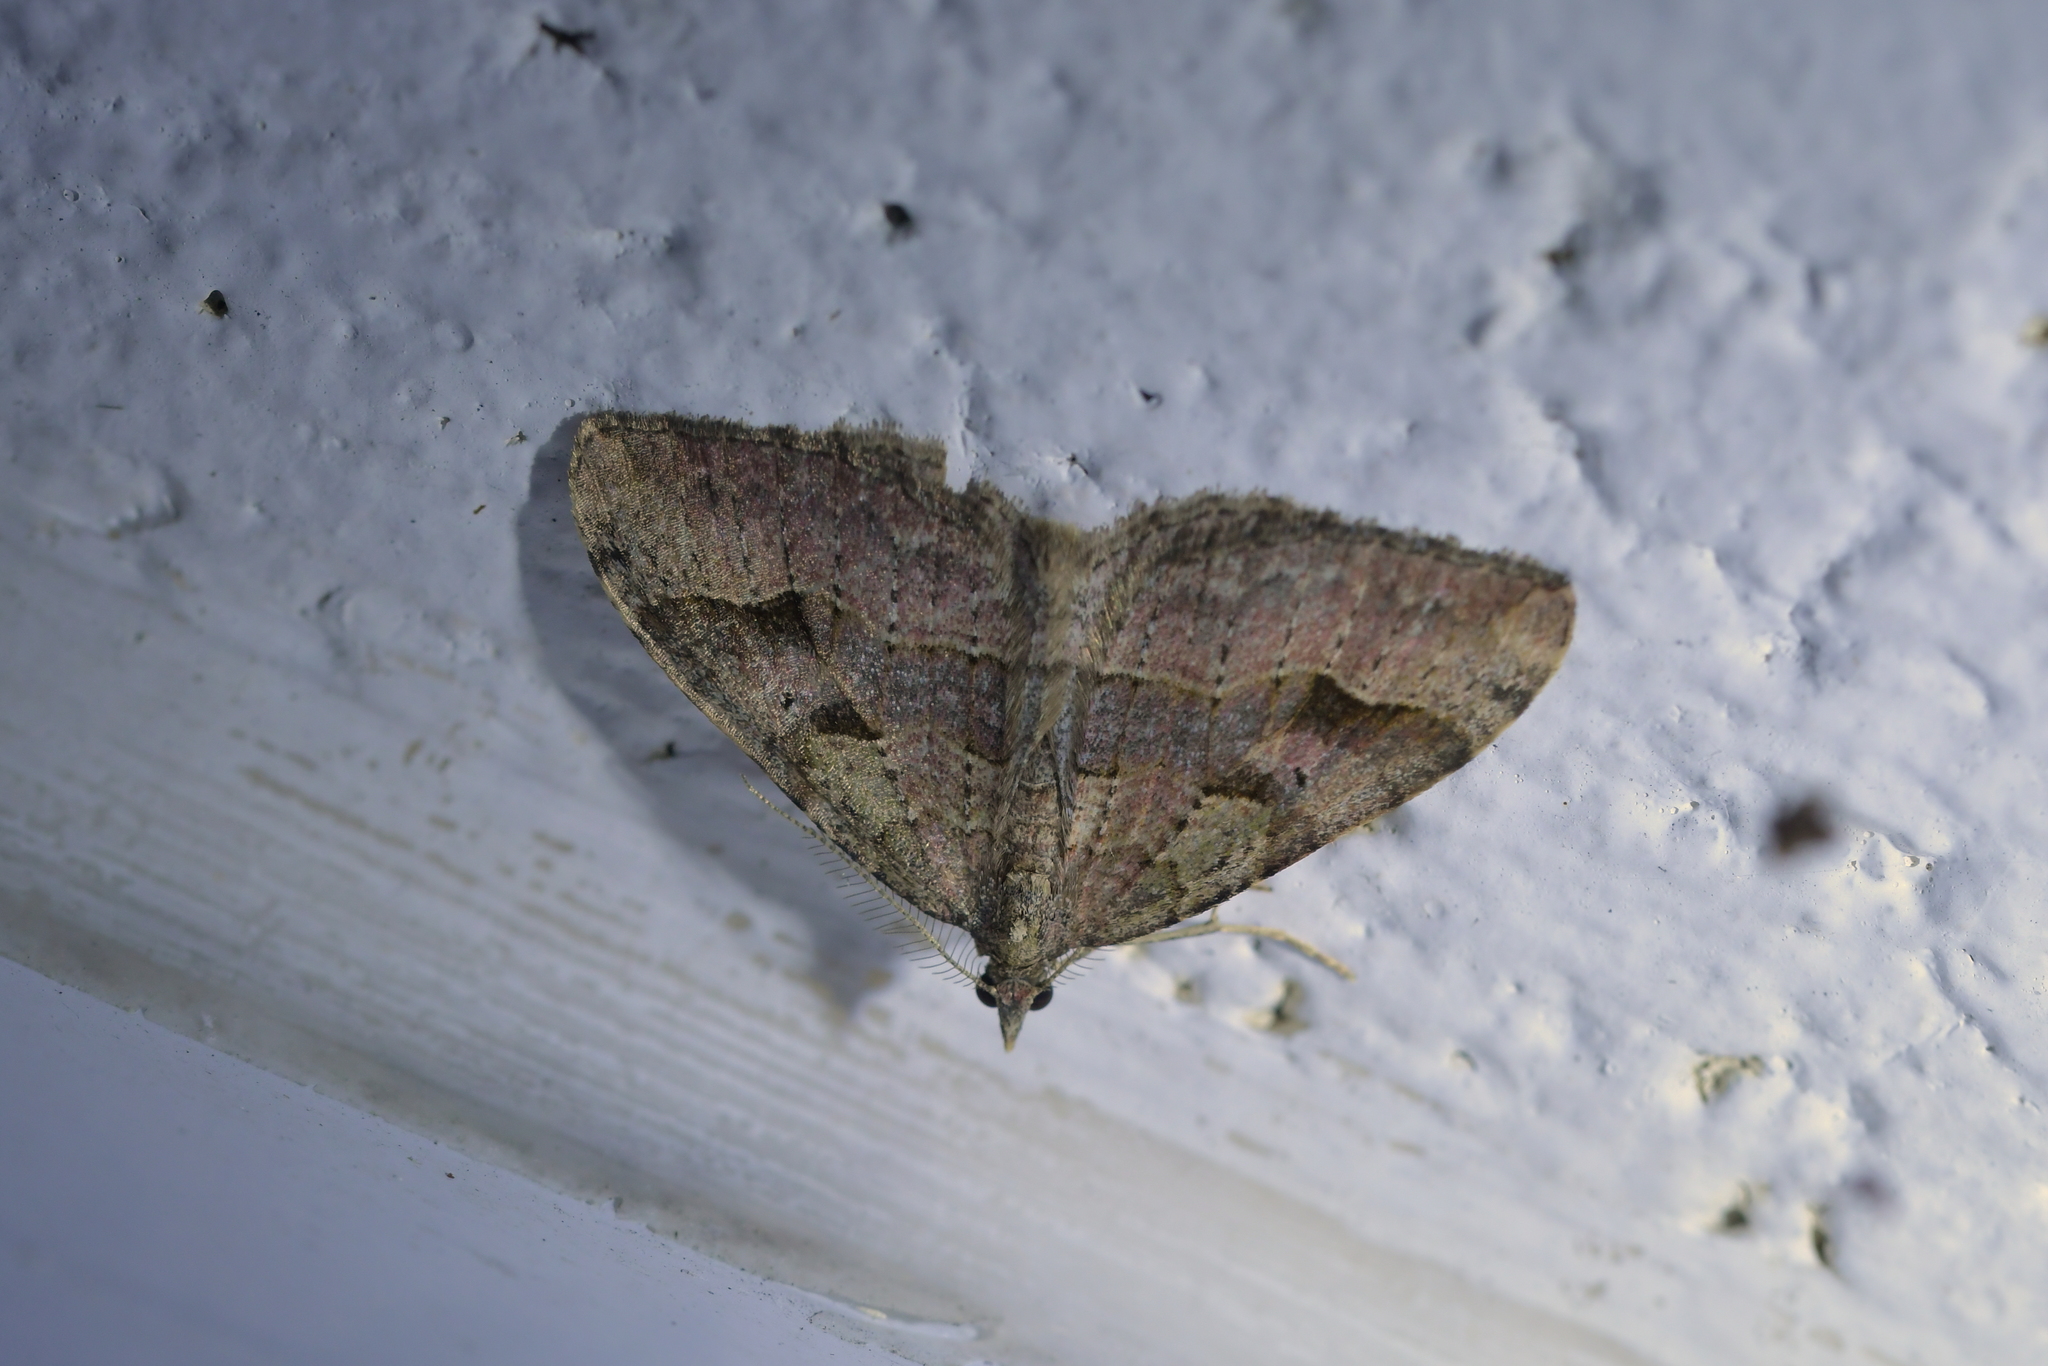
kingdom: Animalia
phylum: Arthropoda
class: Insecta
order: Lepidoptera
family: Geometridae
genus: Epyaxa
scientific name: Epyaxa rosearia
